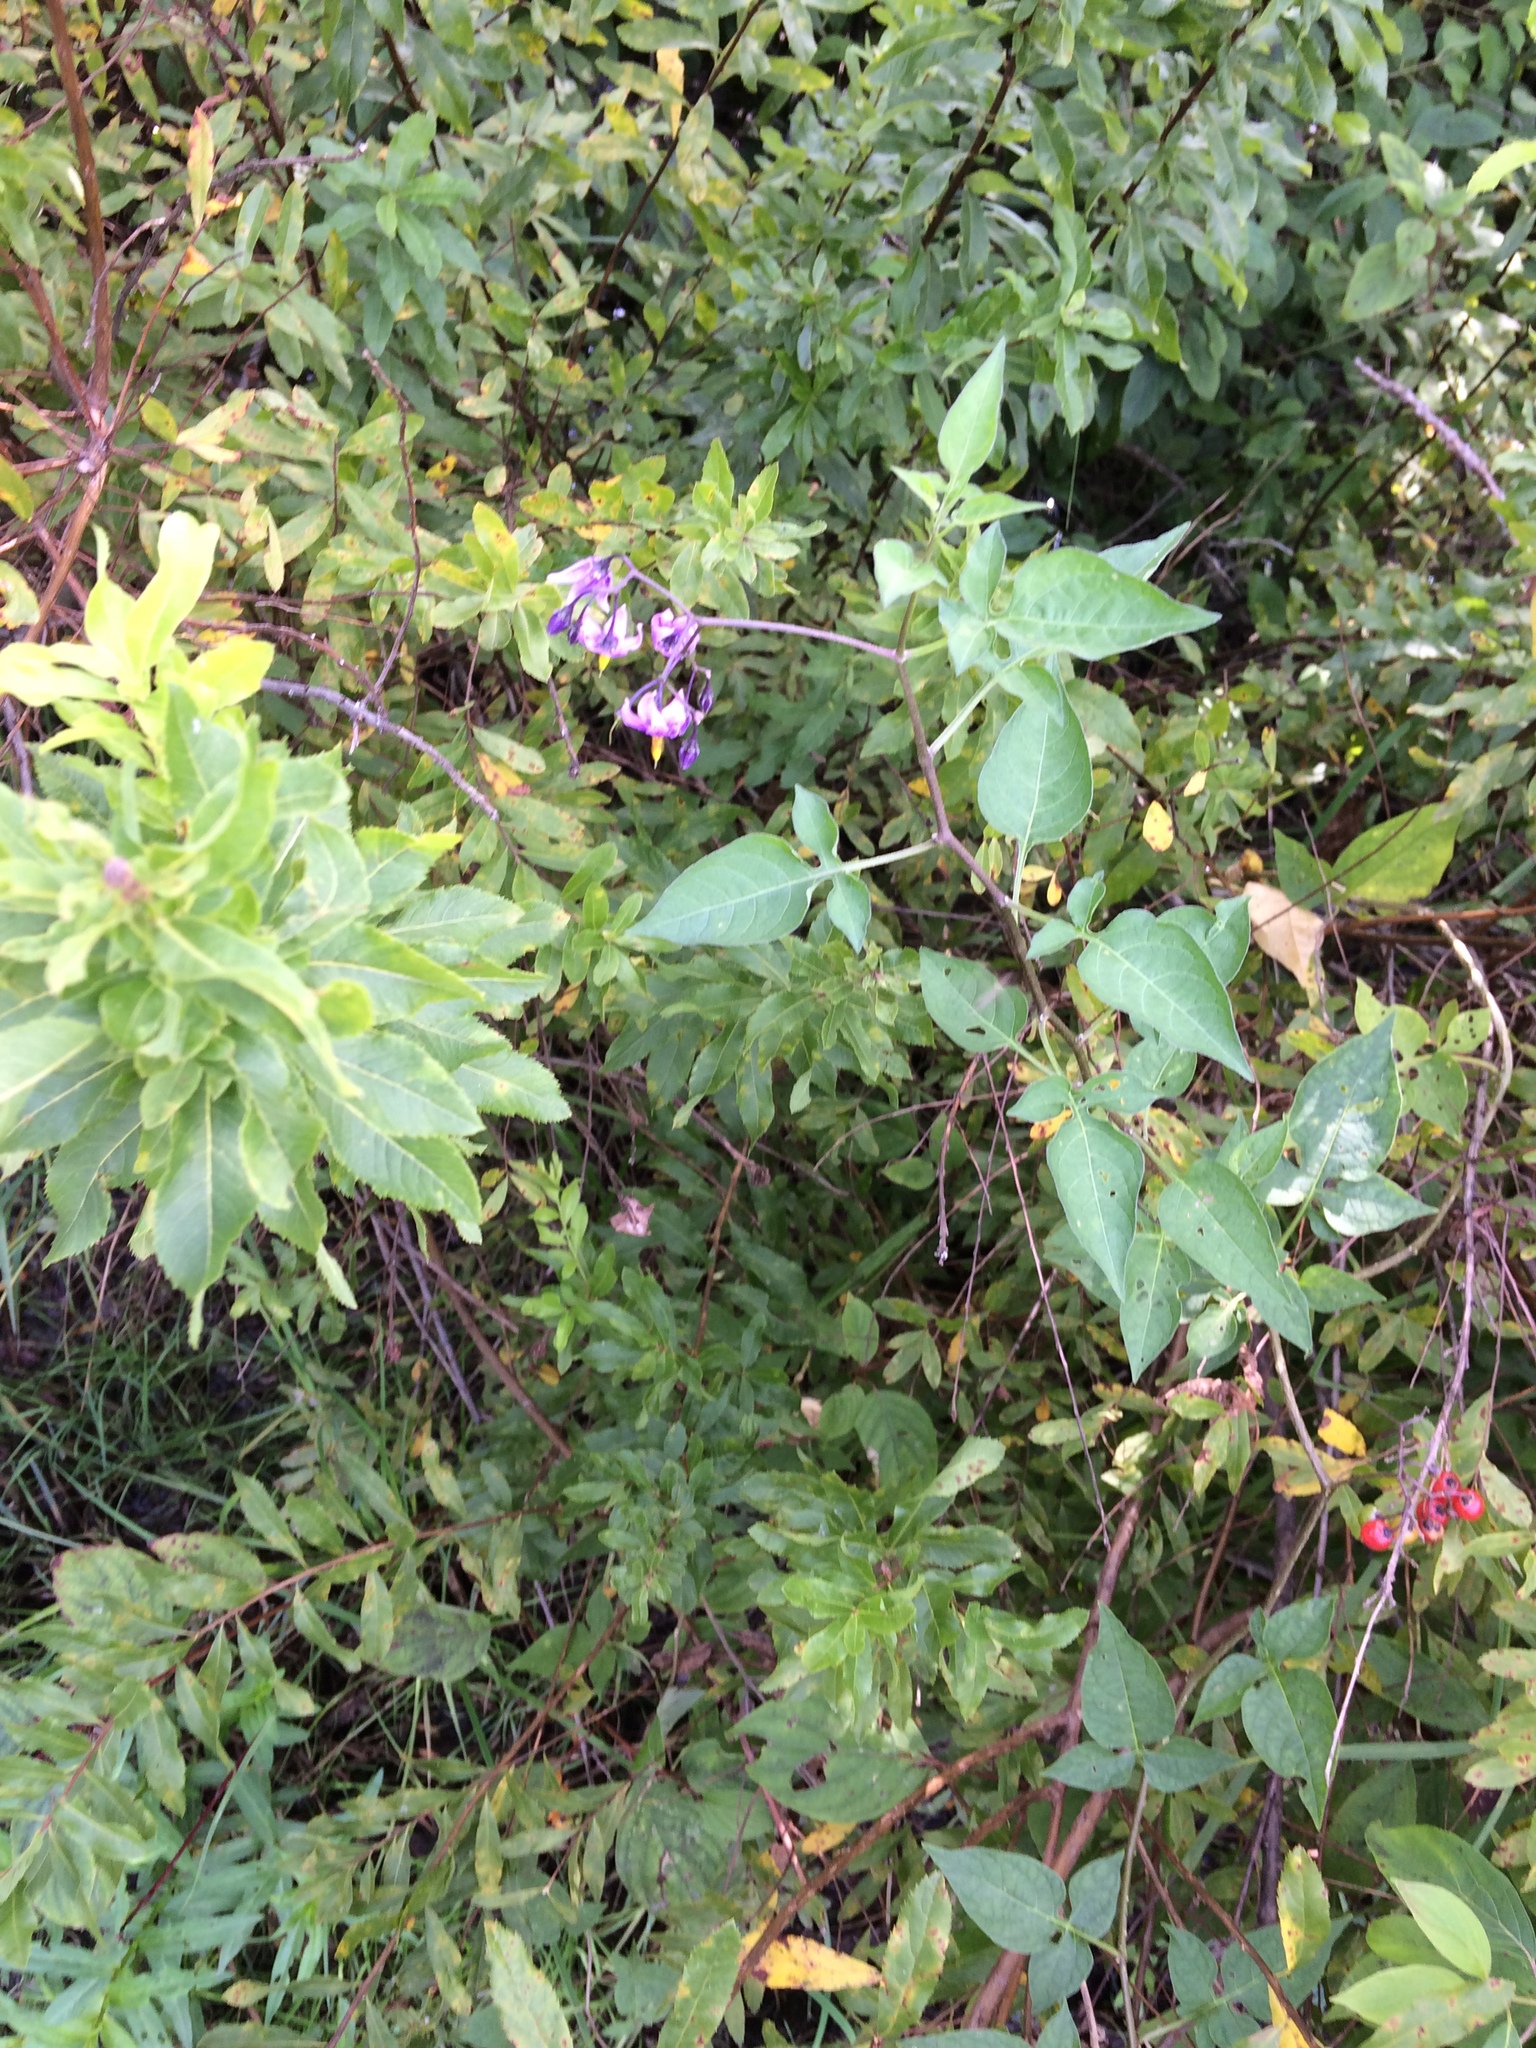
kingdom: Plantae
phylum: Tracheophyta
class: Magnoliopsida
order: Solanales
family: Solanaceae
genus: Solanum
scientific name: Solanum dulcamara
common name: Climbing nightshade
